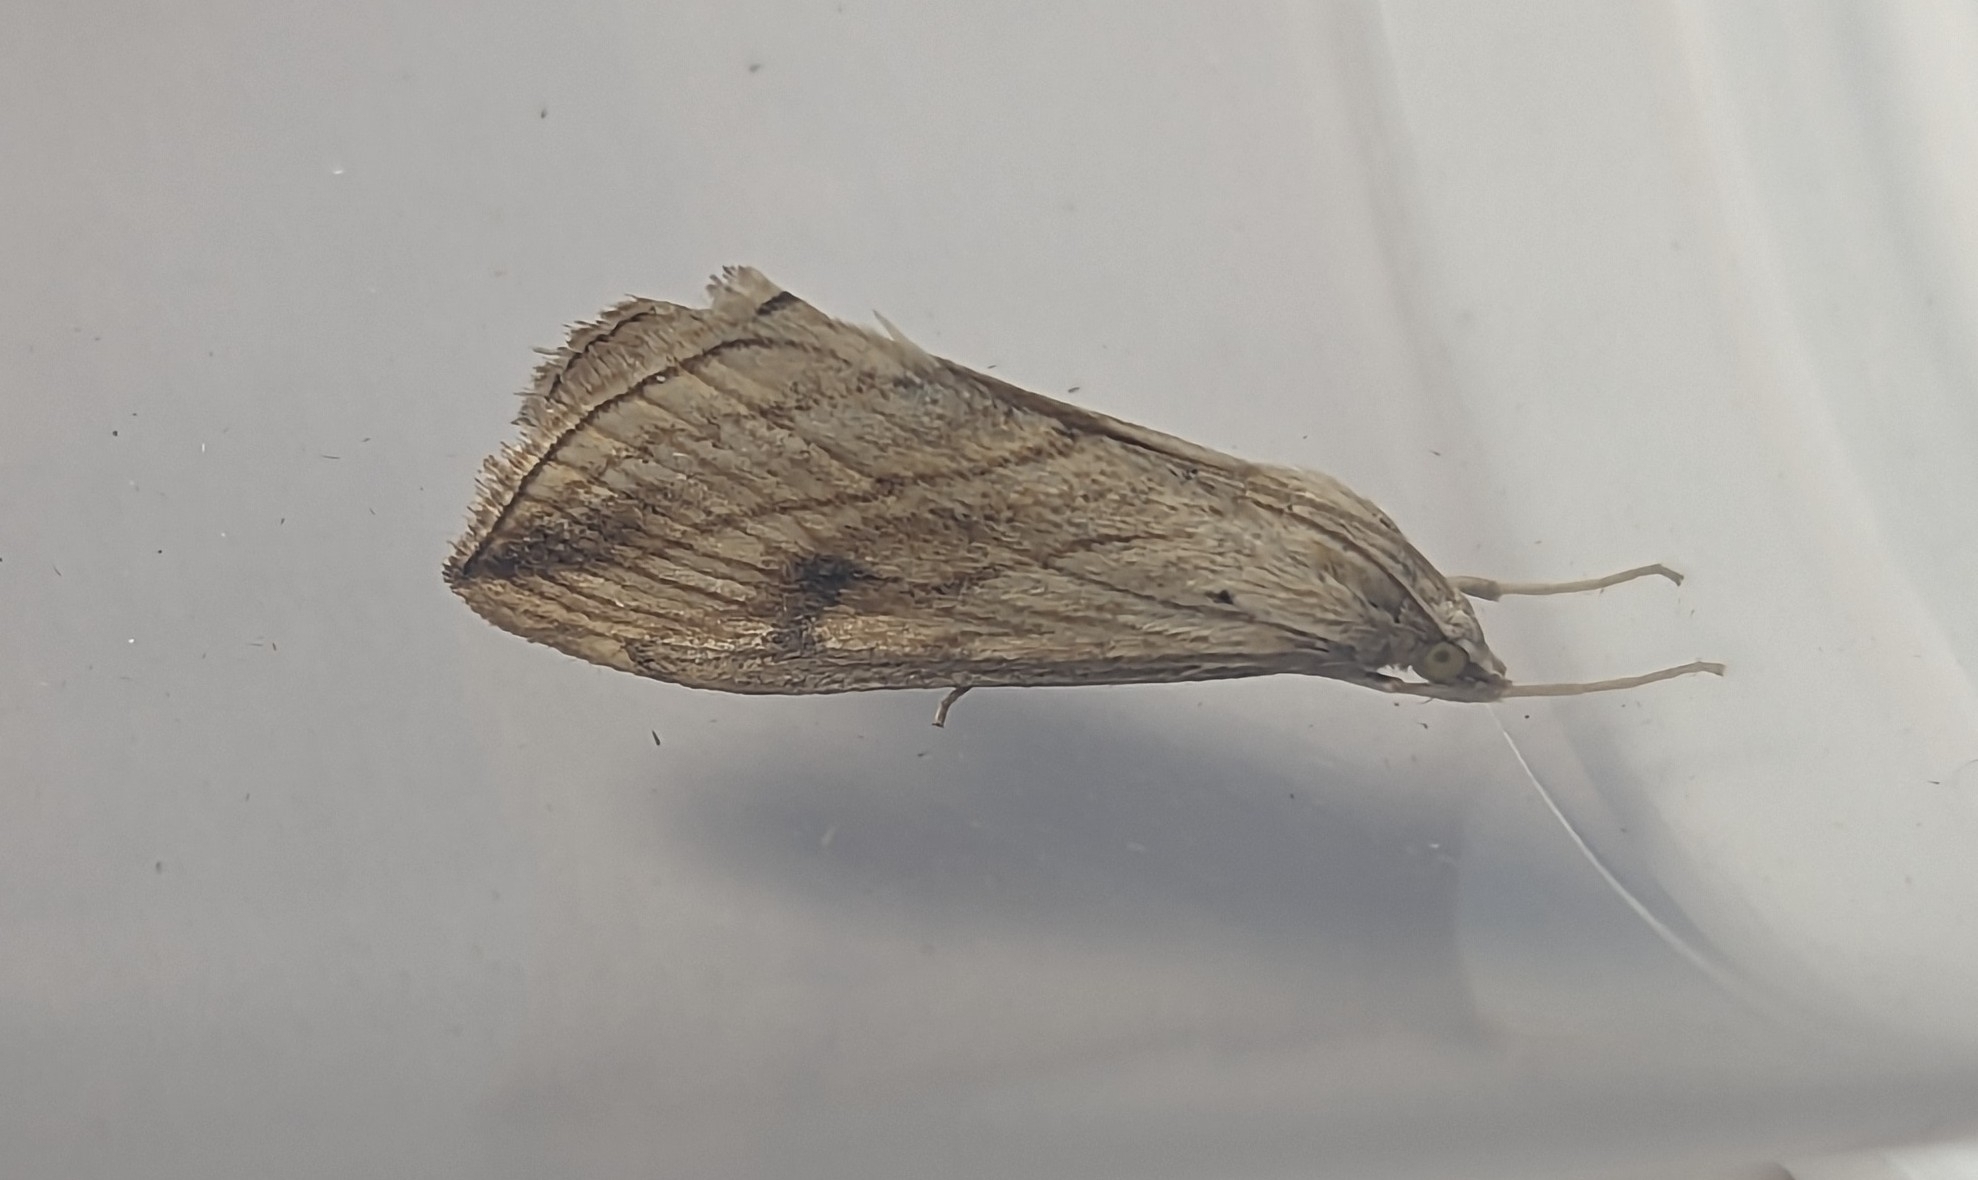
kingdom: Animalia
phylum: Arthropoda
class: Insecta
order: Lepidoptera
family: Crambidae
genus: Evergestis
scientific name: Evergestis forficalis
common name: Garden pebble
